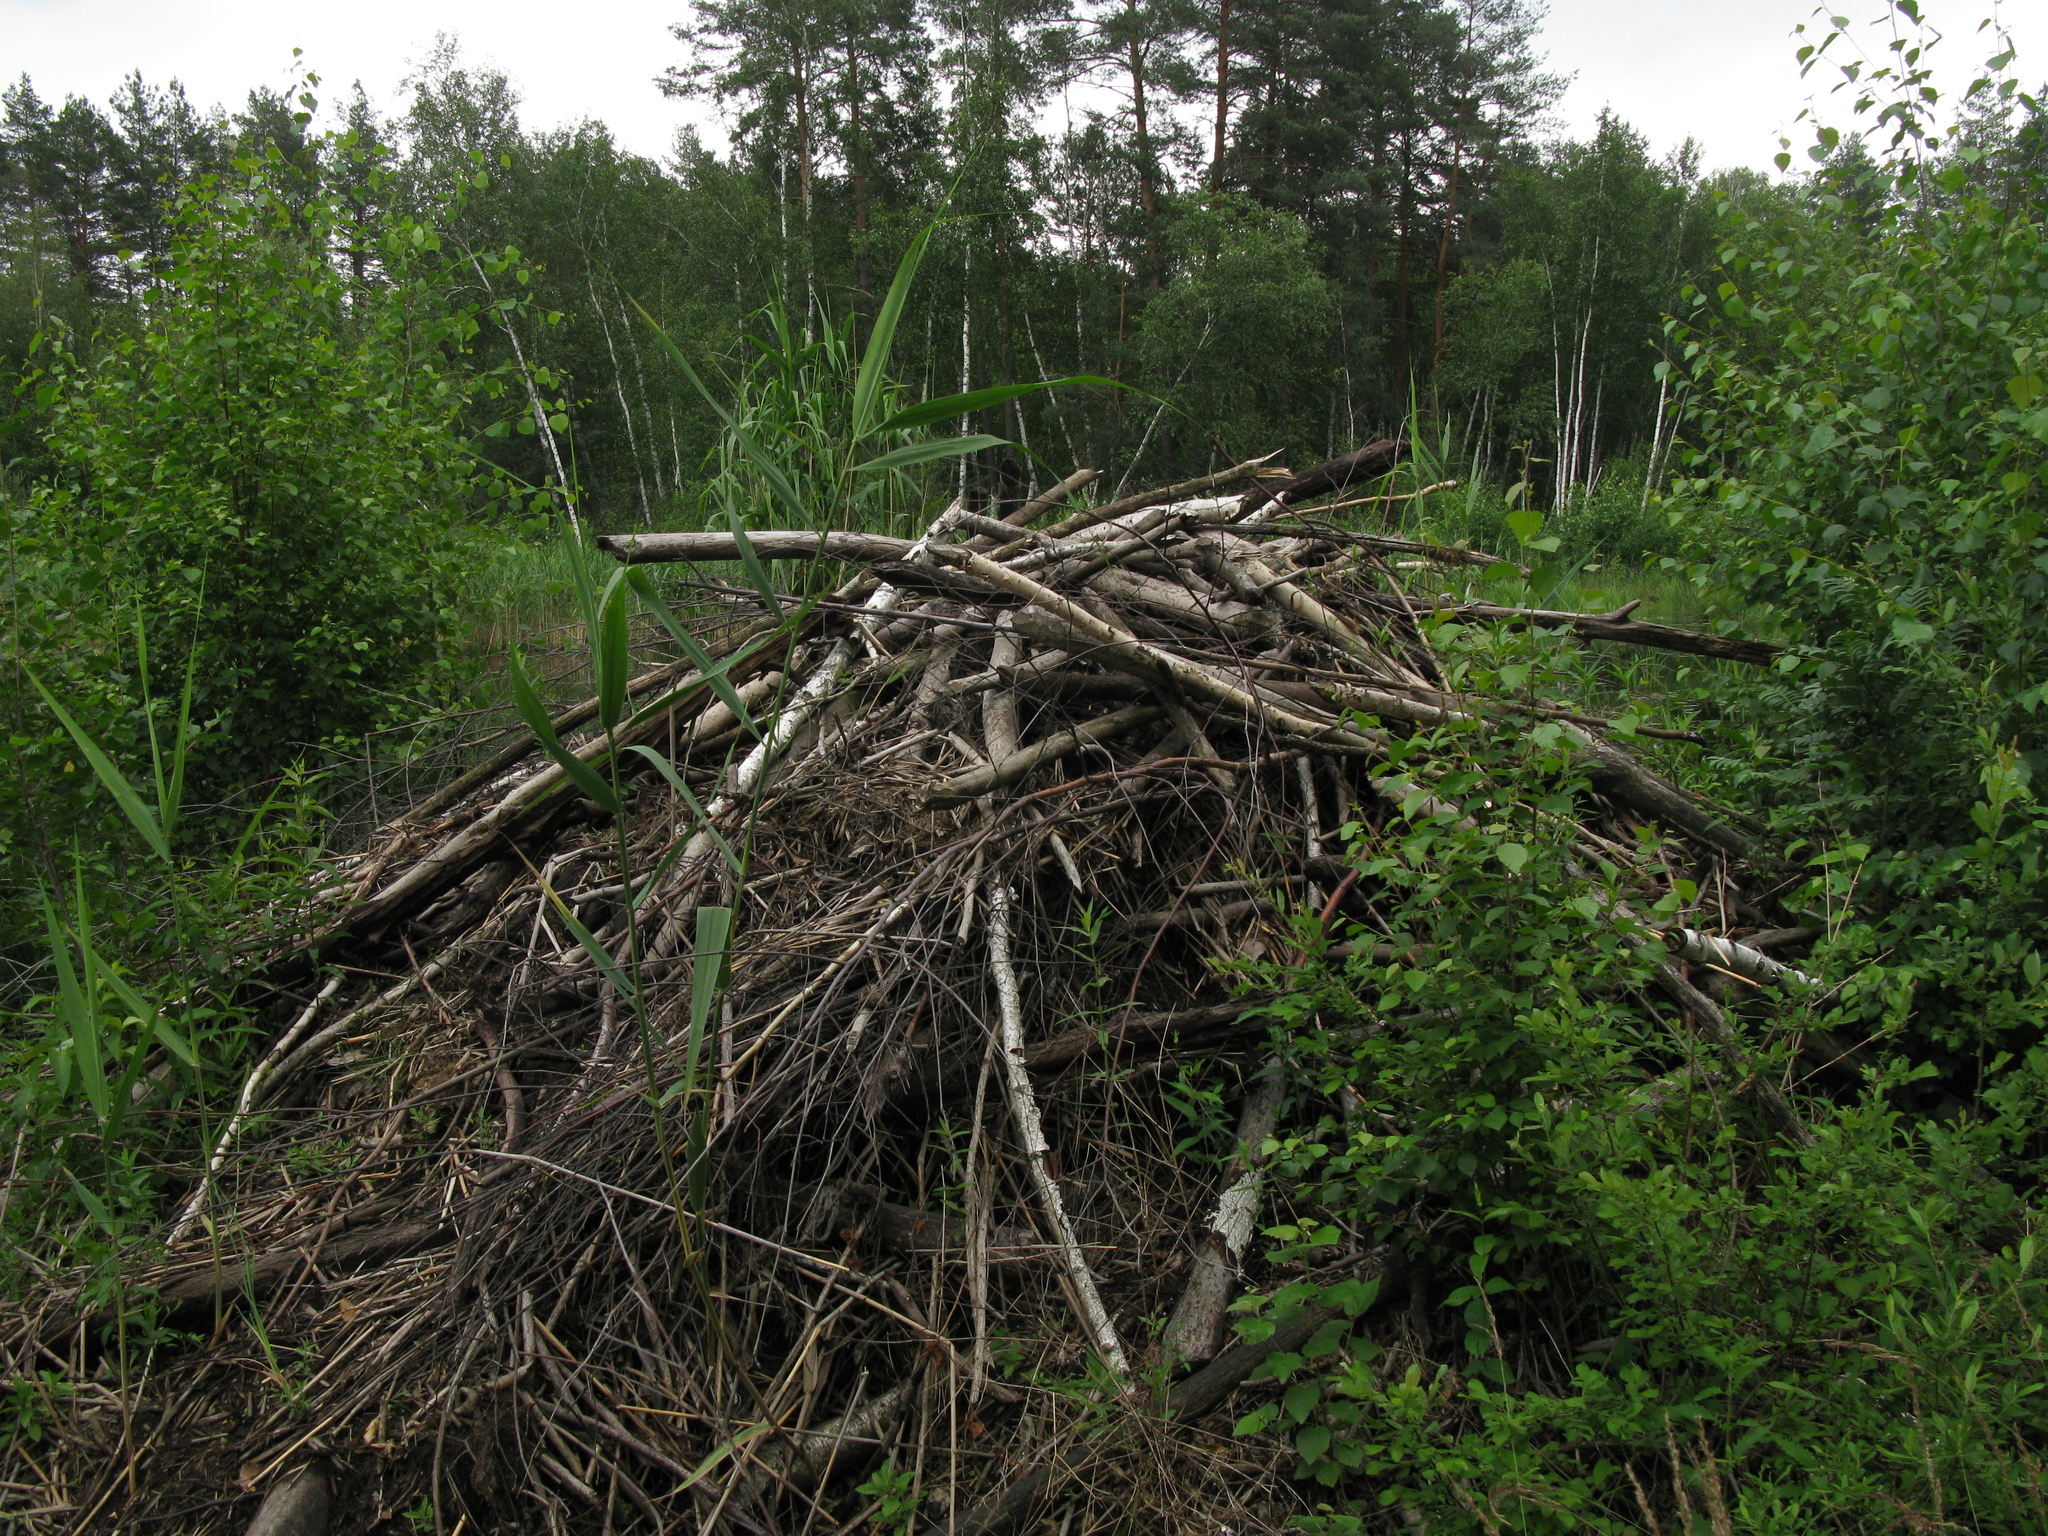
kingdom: Animalia
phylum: Chordata
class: Mammalia
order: Rodentia
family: Castoridae
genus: Castor
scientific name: Castor fiber
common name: Eurasian beaver
